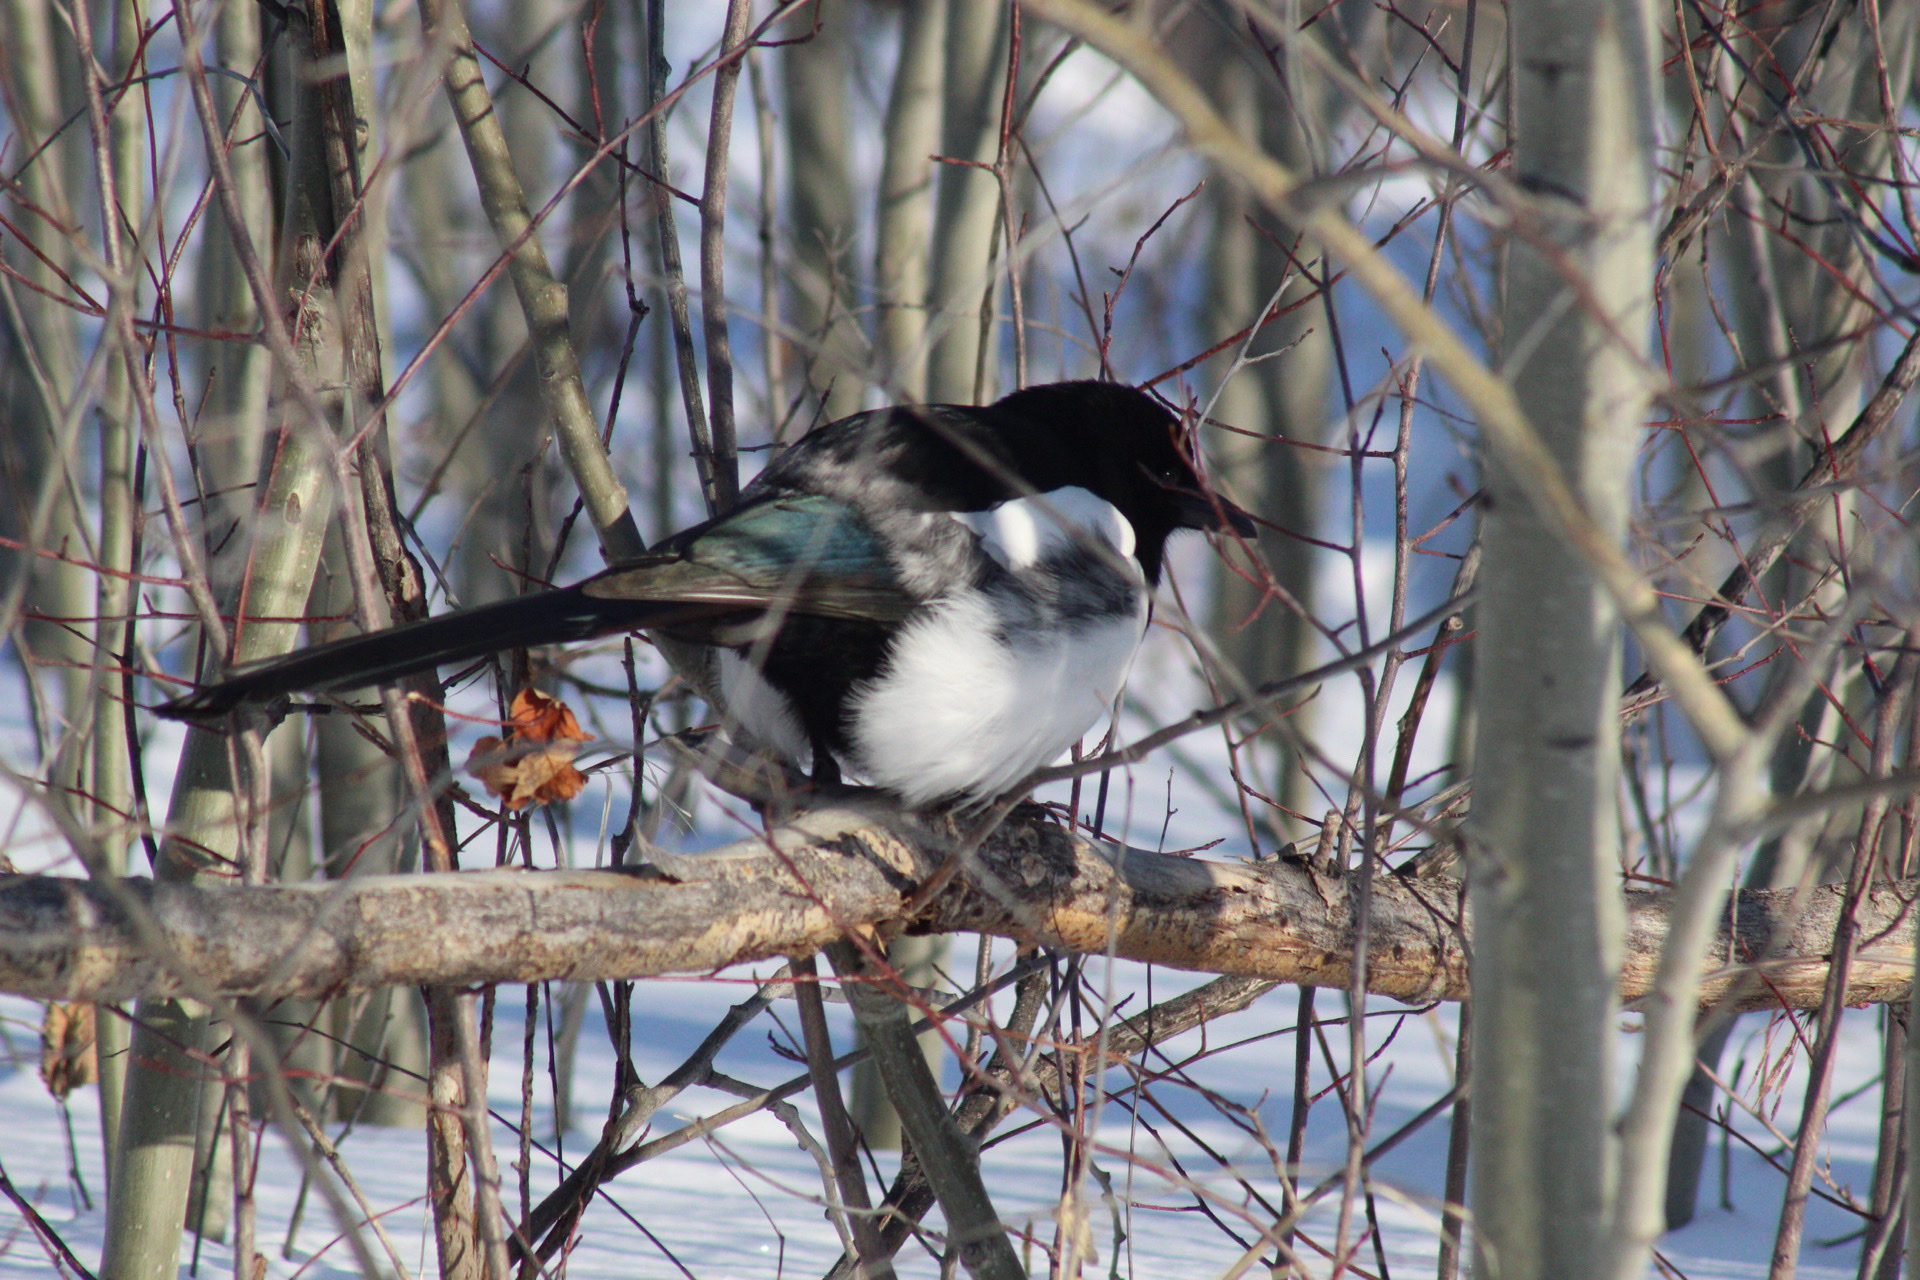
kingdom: Animalia
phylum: Chordata
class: Aves
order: Passeriformes
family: Corvidae
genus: Pica
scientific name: Pica hudsonia
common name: Black-billed magpie
